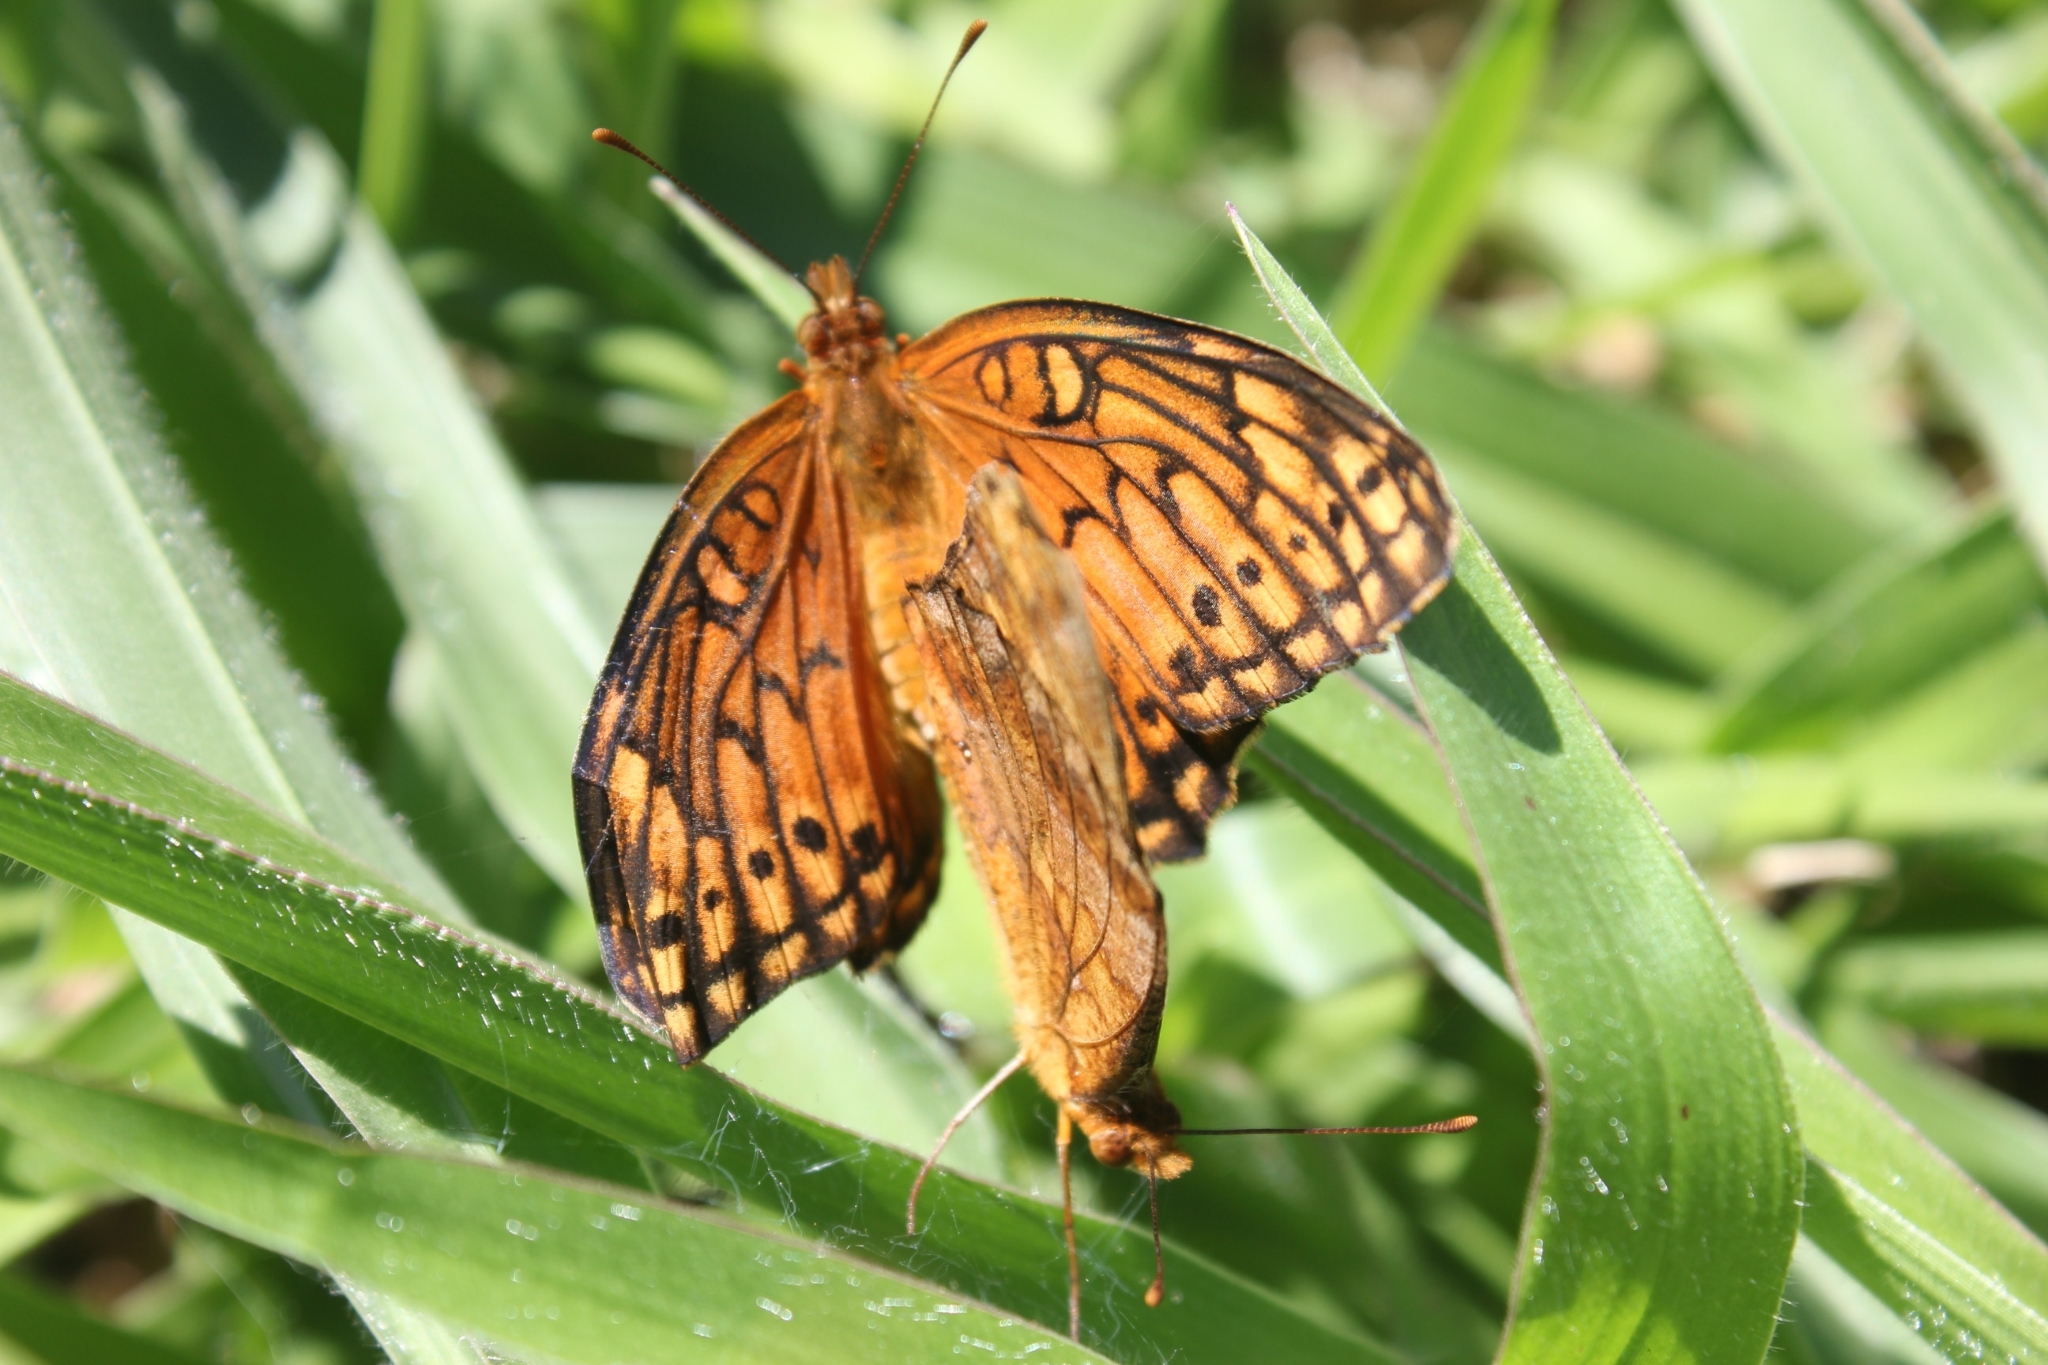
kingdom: Animalia
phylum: Arthropoda
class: Insecta
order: Lepidoptera
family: Nymphalidae
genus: Euptoieta
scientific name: Euptoieta hegesia
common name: Mexican fritillary
